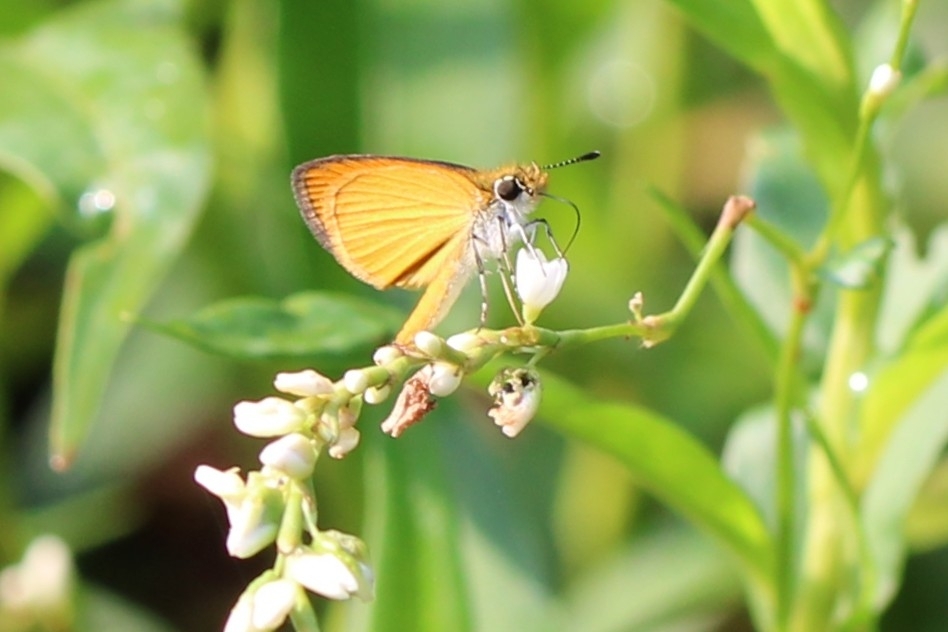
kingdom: Animalia
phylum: Arthropoda
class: Insecta
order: Lepidoptera
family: Hesperiidae
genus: Ancyloxypha
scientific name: Ancyloxypha numitor
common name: Least skipper
